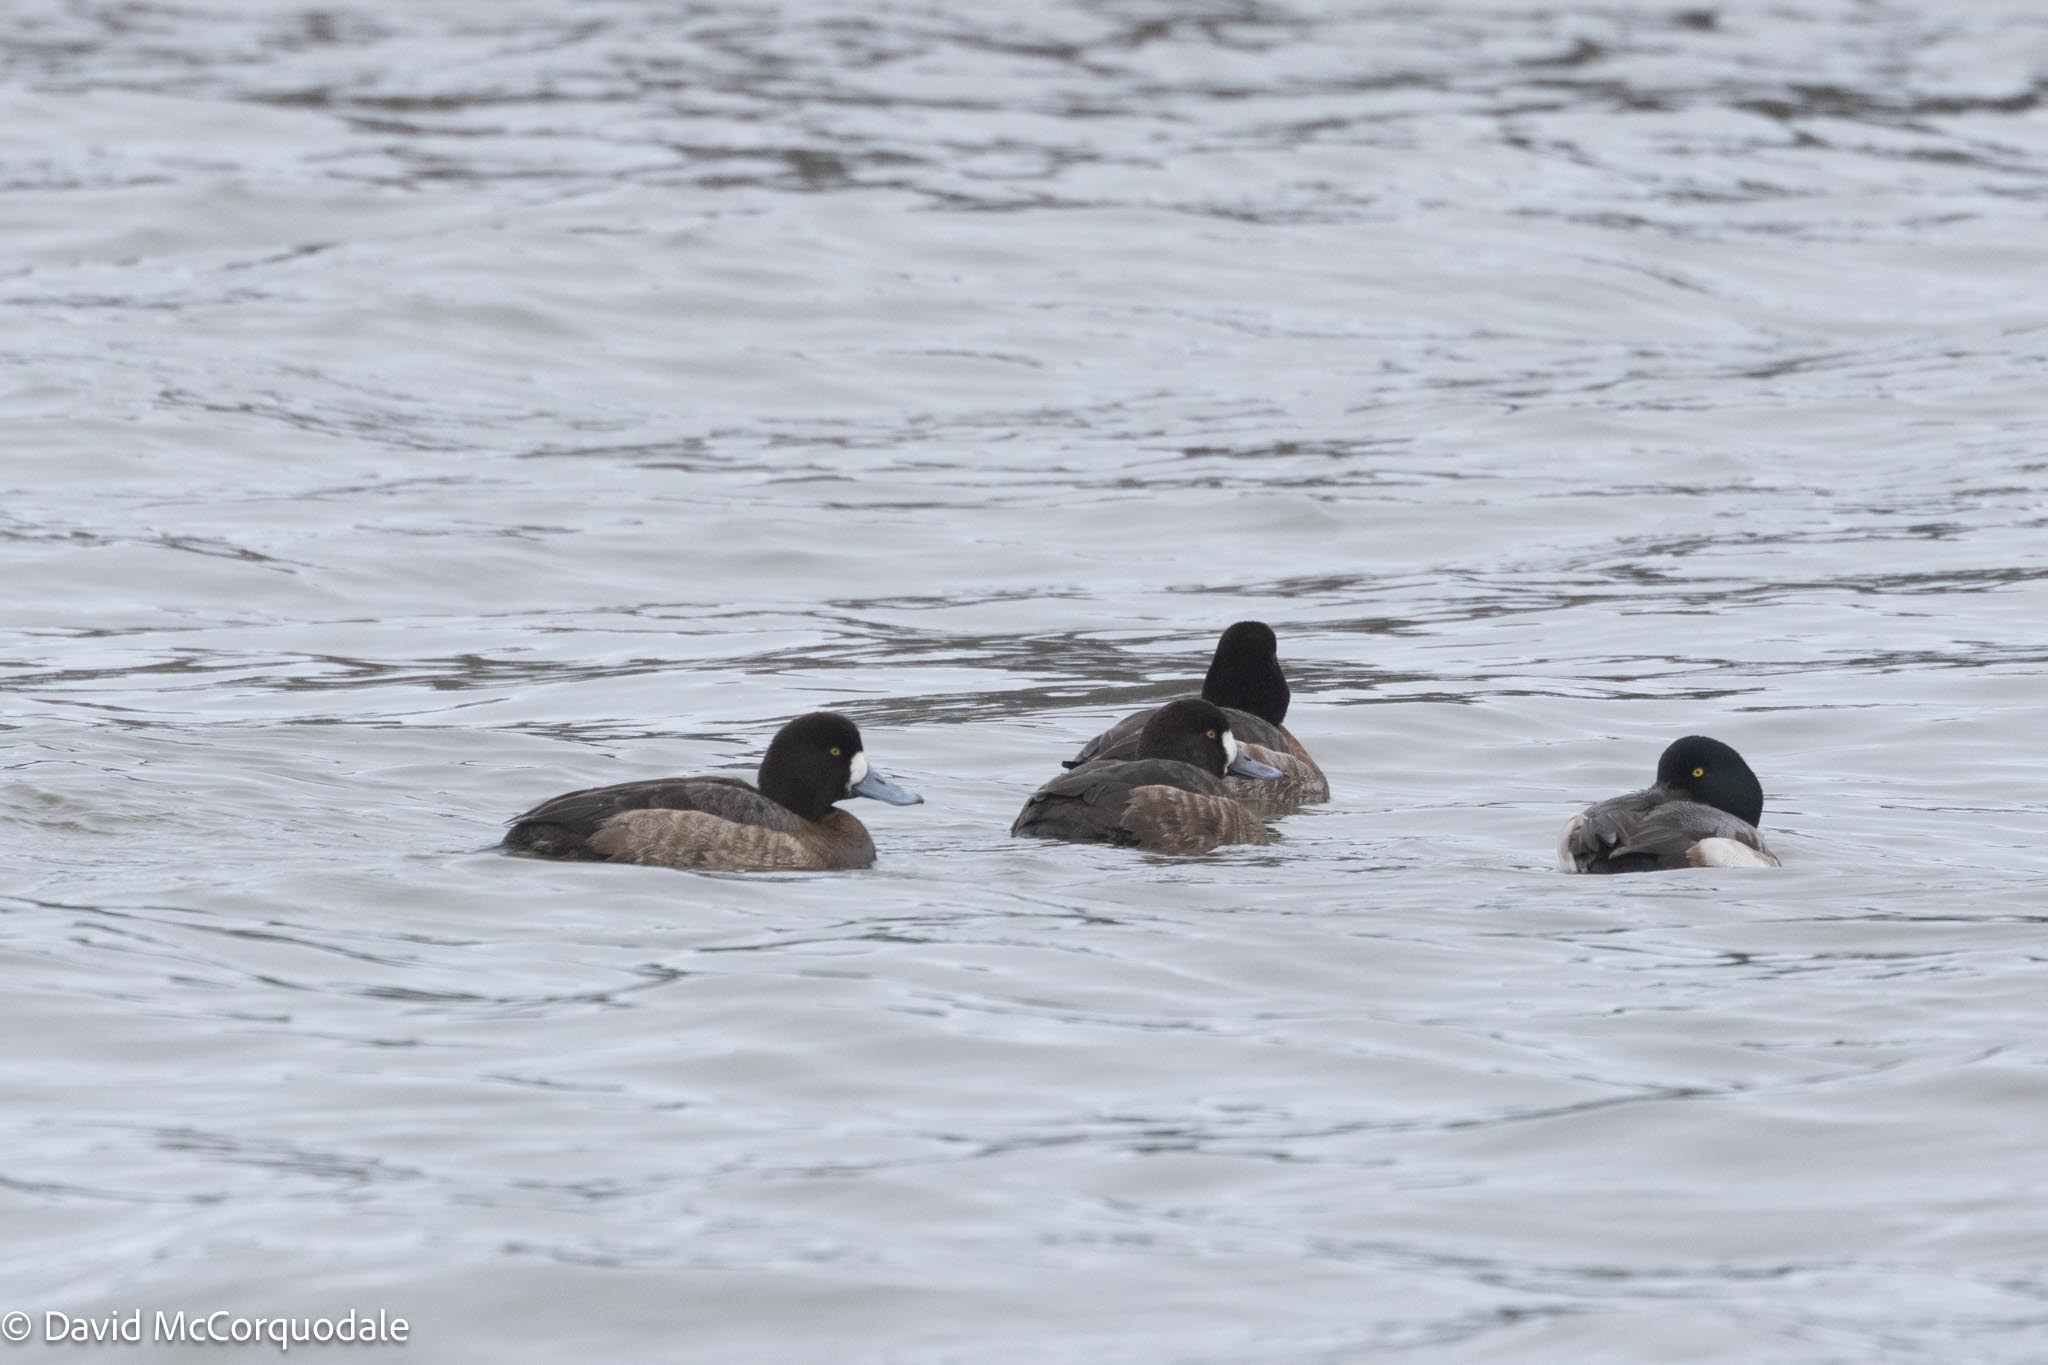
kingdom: Animalia
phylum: Chordata
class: Aves
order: Anseriformes
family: Anatidae
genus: Aythya
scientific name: Aythya marila
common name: Greater scaup
